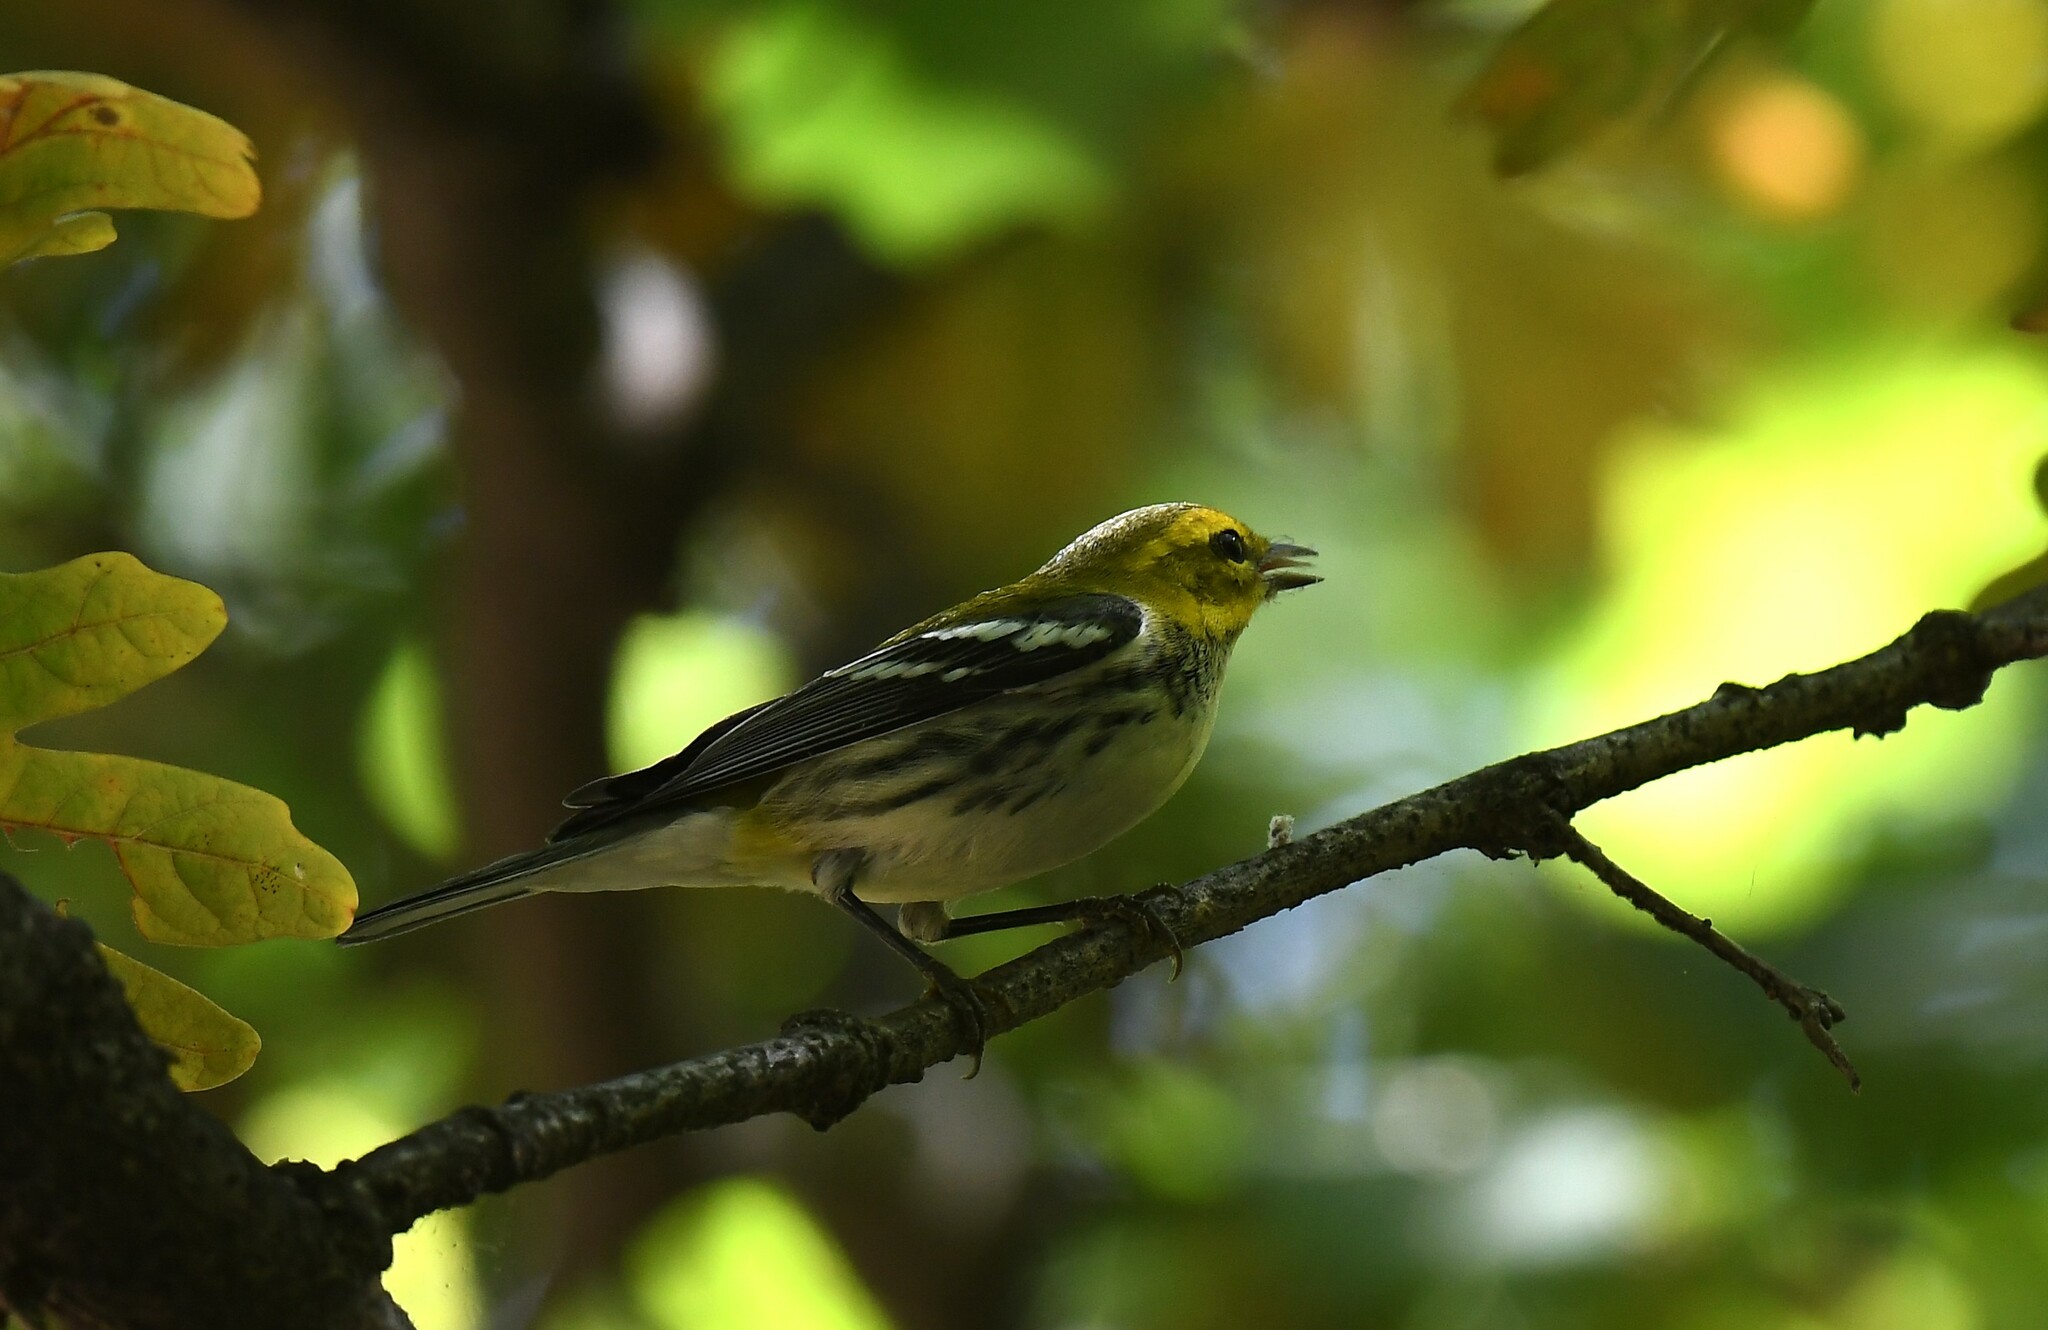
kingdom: Animalia
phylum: Chordata
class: Aves
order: Passeriformes
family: Parulidae
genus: Setophaga
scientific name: Setophaga virens
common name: Black-throated green warbler
